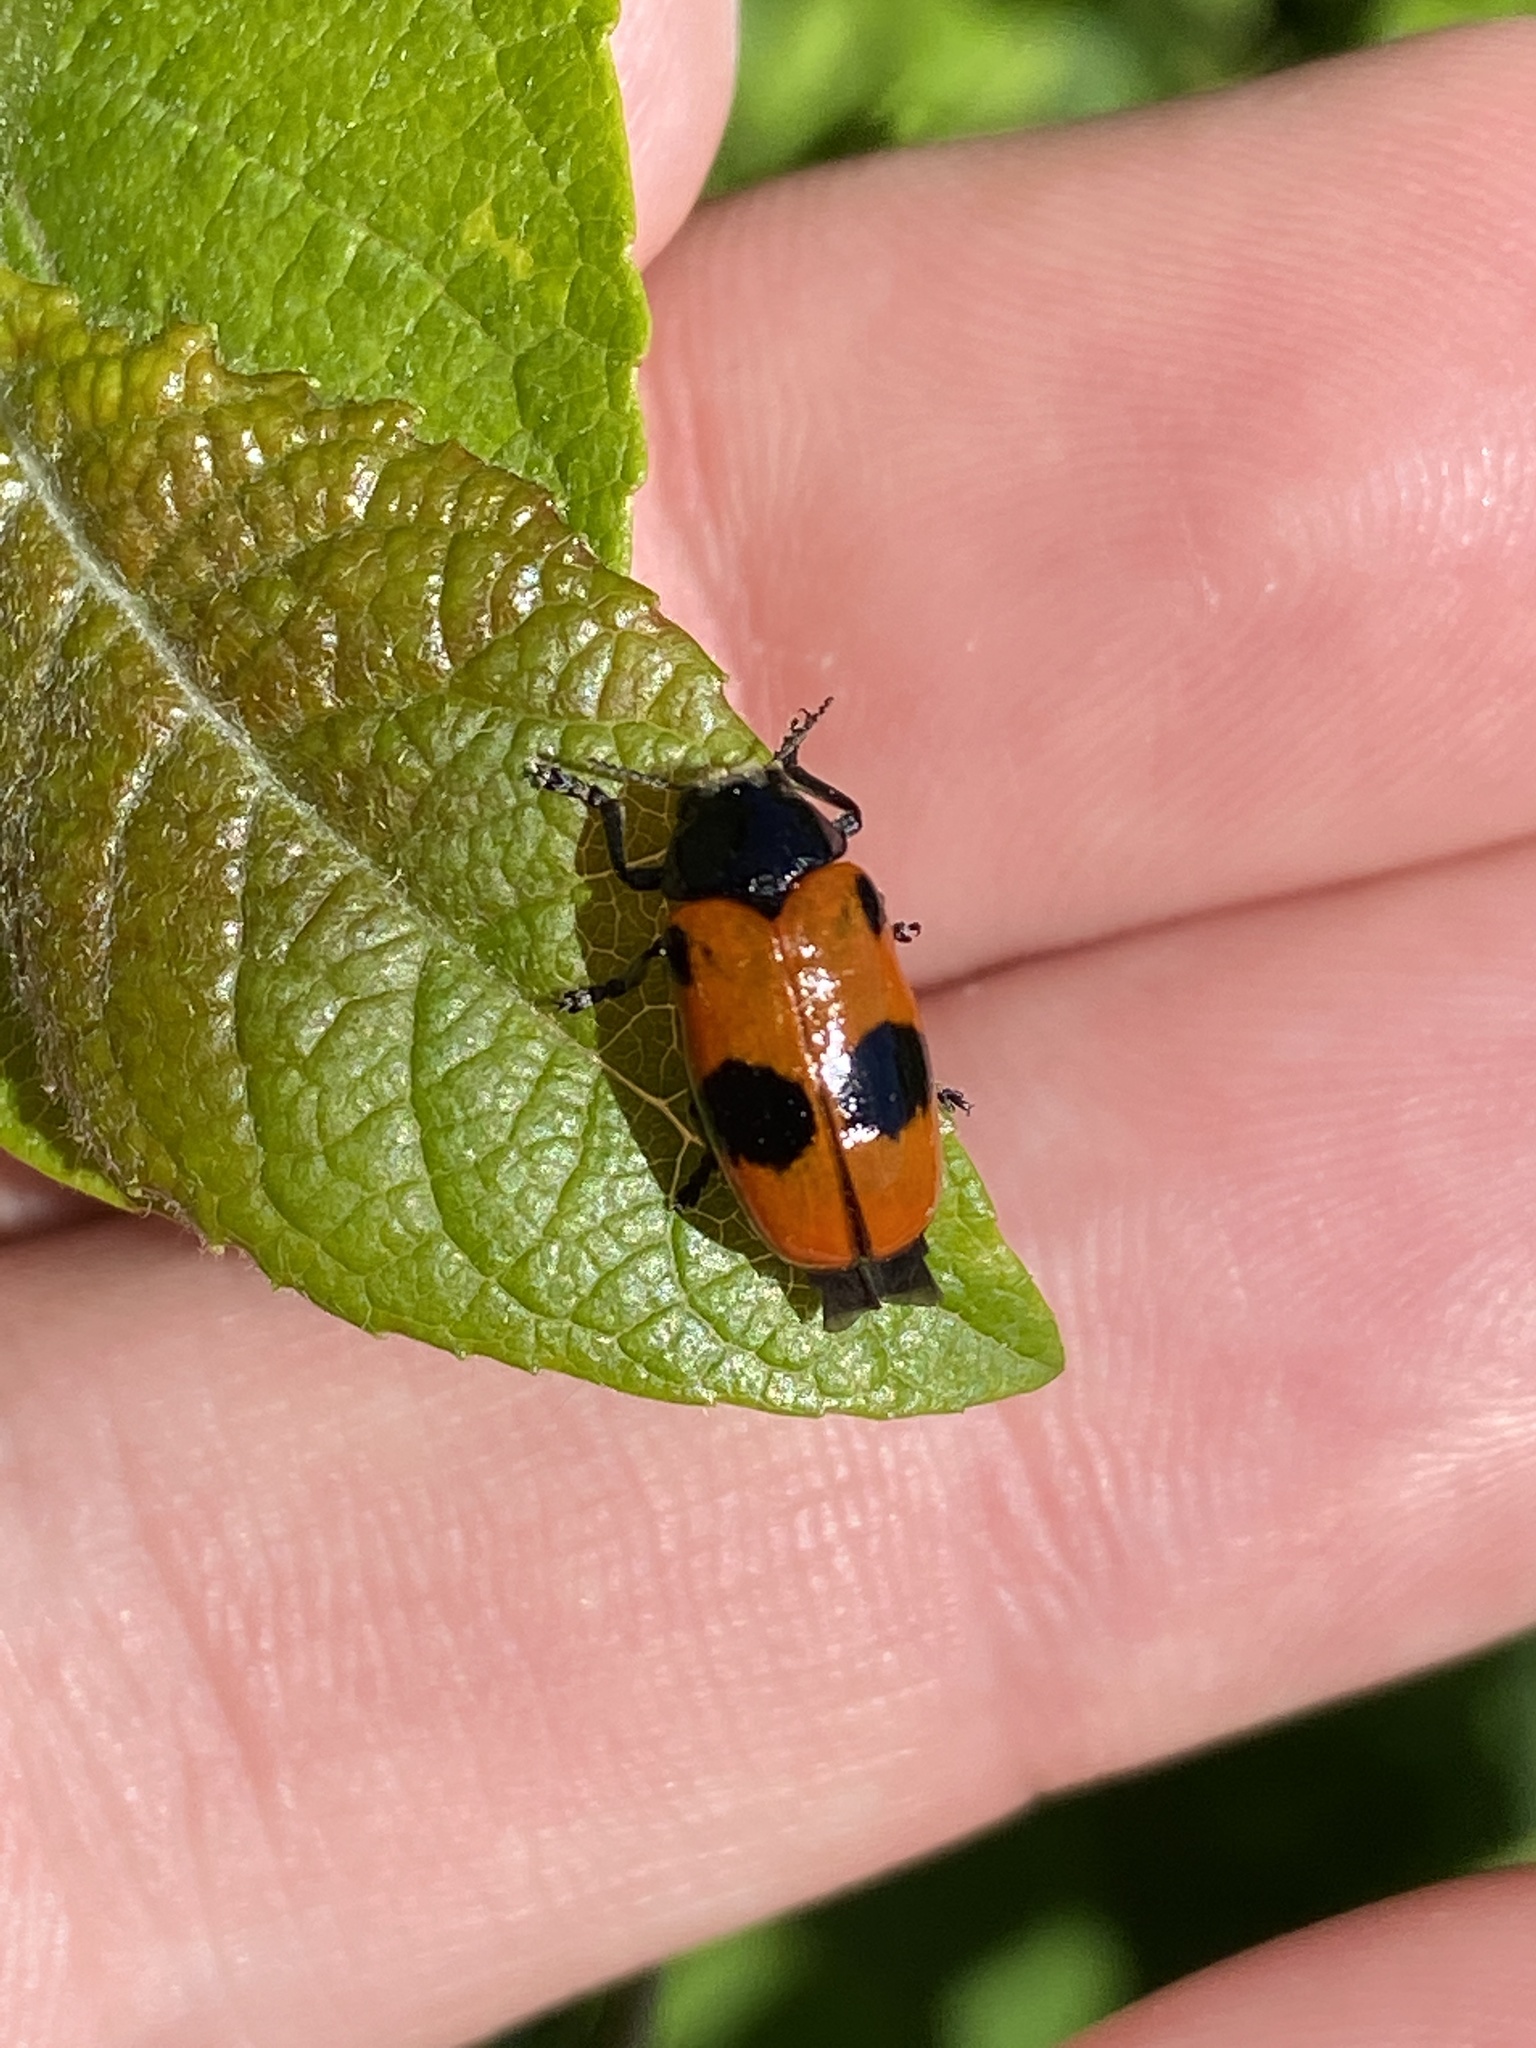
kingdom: Animalia
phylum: Arthropoda
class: Insecta
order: Coleoptera
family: Chrysomelidae
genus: Clytra
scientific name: Clytra laeviuscula
